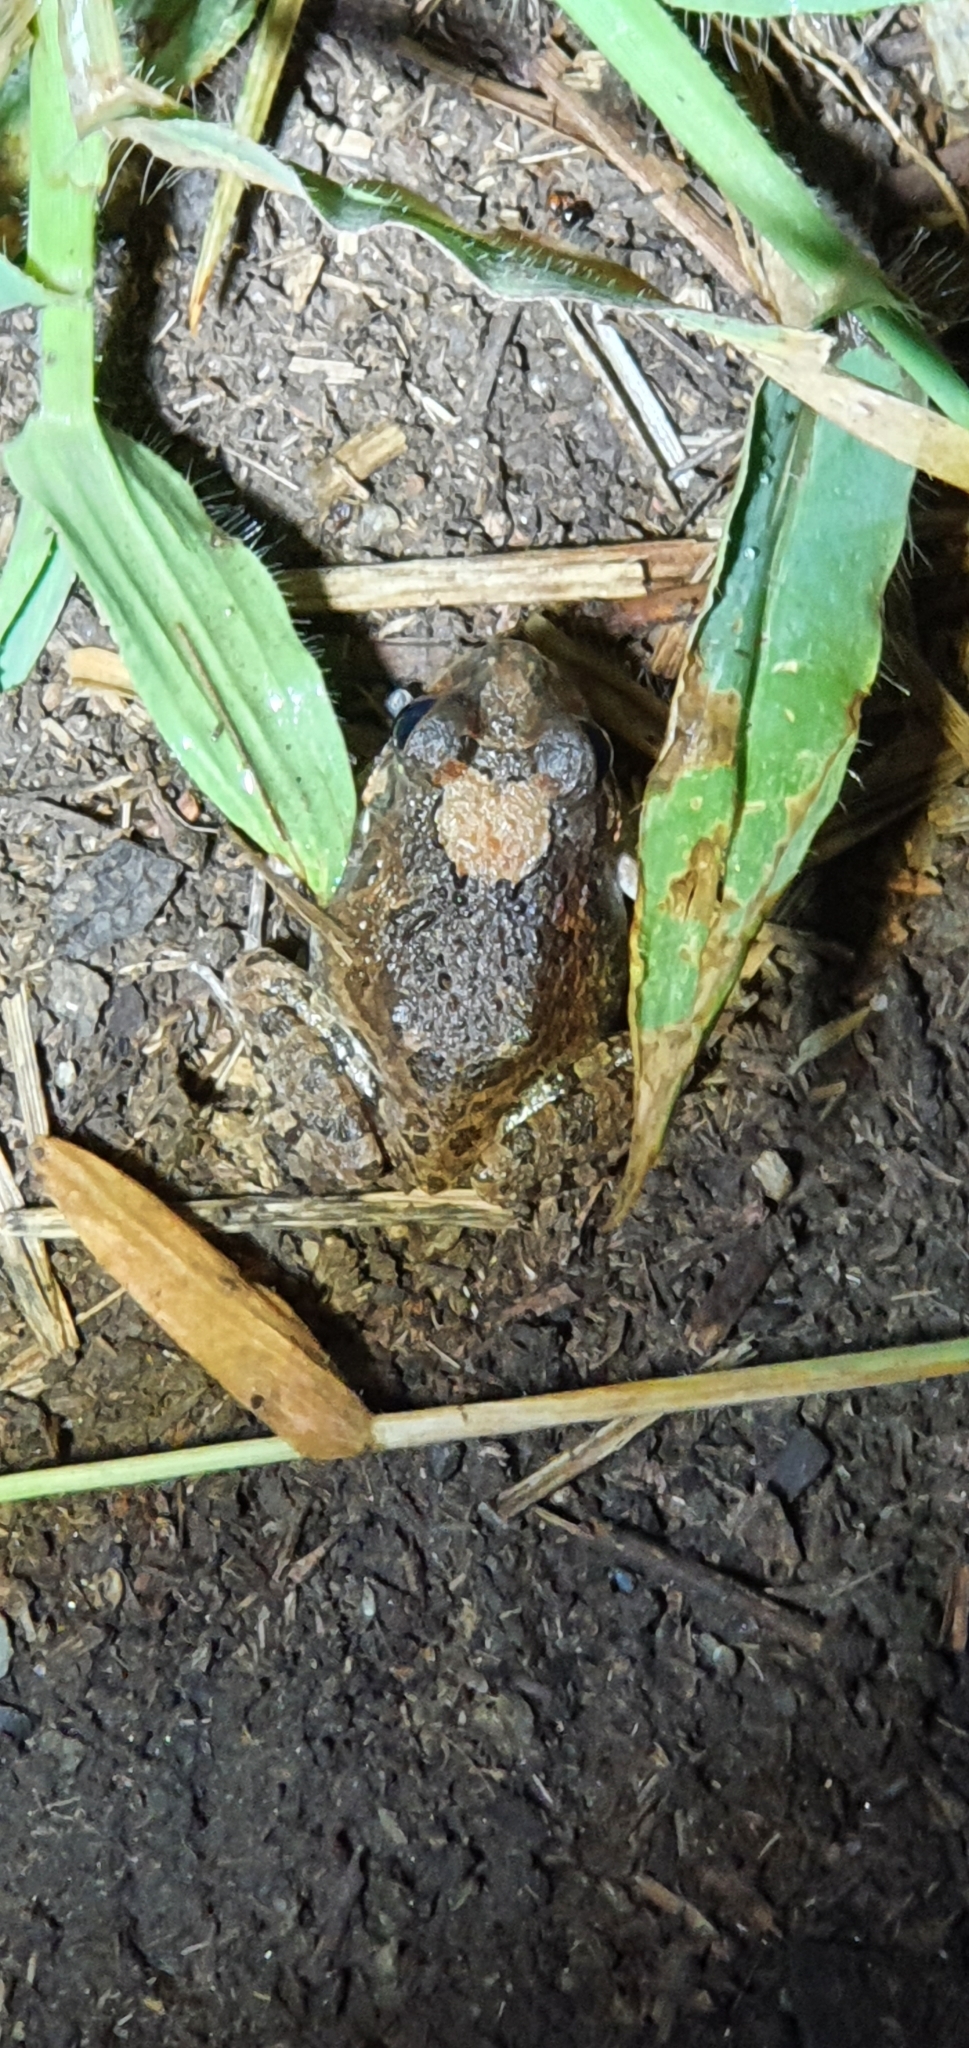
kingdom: Animalia
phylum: Chordata
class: Amphibia
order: Anura
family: Limnodynastidae
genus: Platyplectrum
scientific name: Platyplectrum ornatum
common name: Ornate burrowing frog
